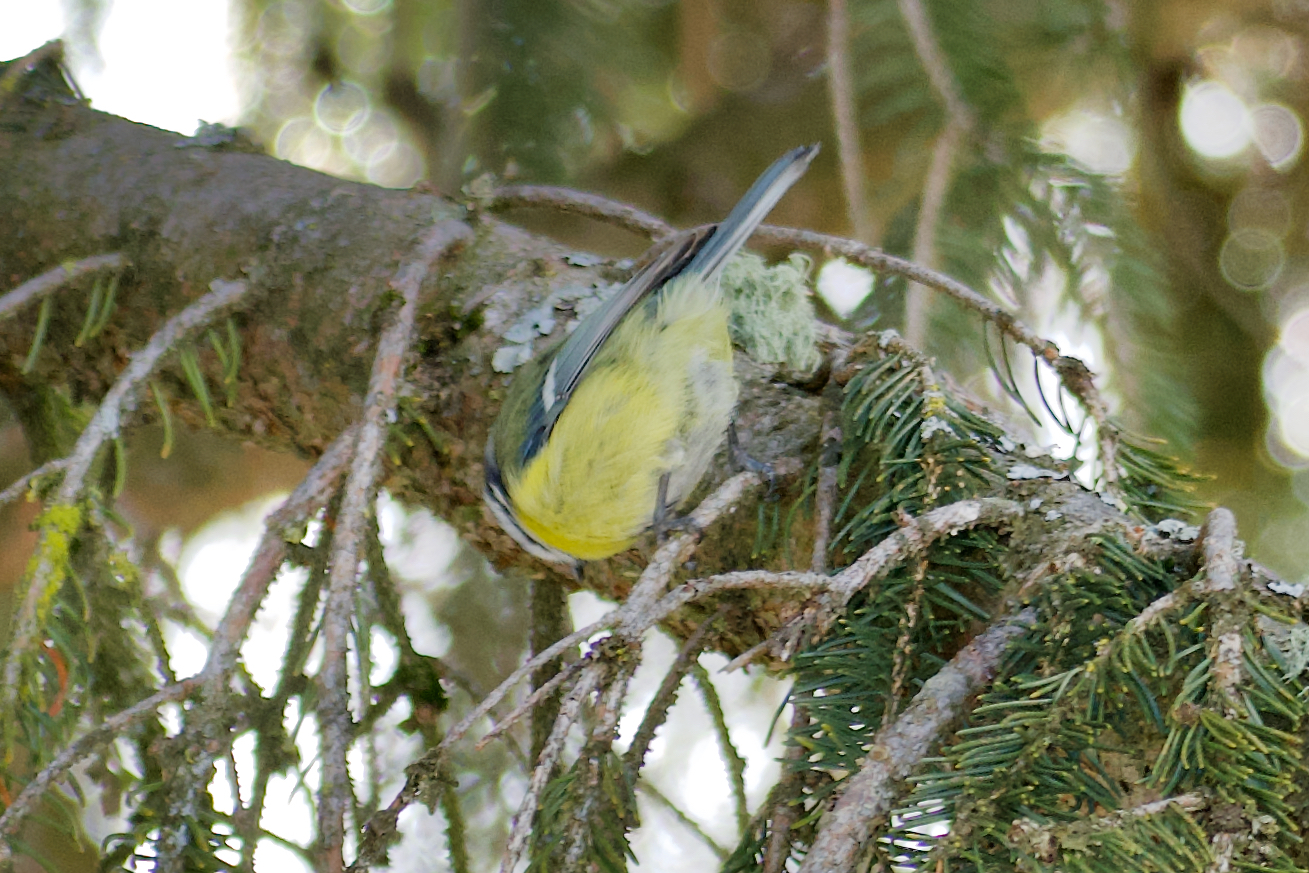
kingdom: Animalia
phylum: Chordata
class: Aves
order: Passeriformes
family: Paridae
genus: Cyanistes
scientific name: Cyanistes caeruleus
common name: Eurasian blue tit
